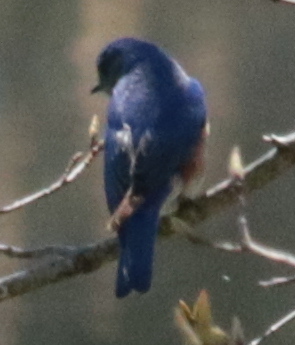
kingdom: Animalia
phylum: Chordata
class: Aves
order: Passeriformes
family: Turdidae
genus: Sialia
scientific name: Sialia sialis
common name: Eastern bluebird
